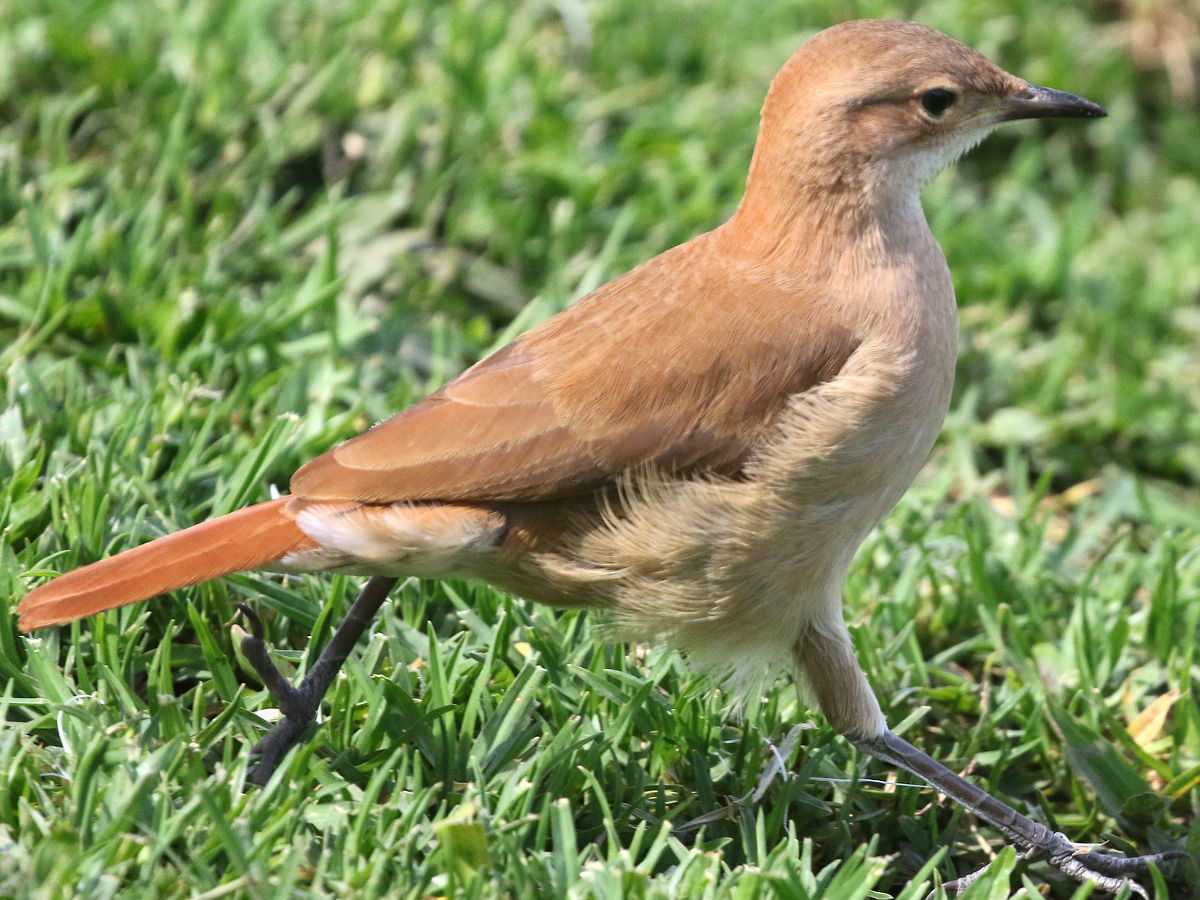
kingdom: Animalia
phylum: Chordata
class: Aves
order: Passeriformes
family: Furnariidae
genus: Furnarius
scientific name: Furnarius rufus
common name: Rufous hornero
